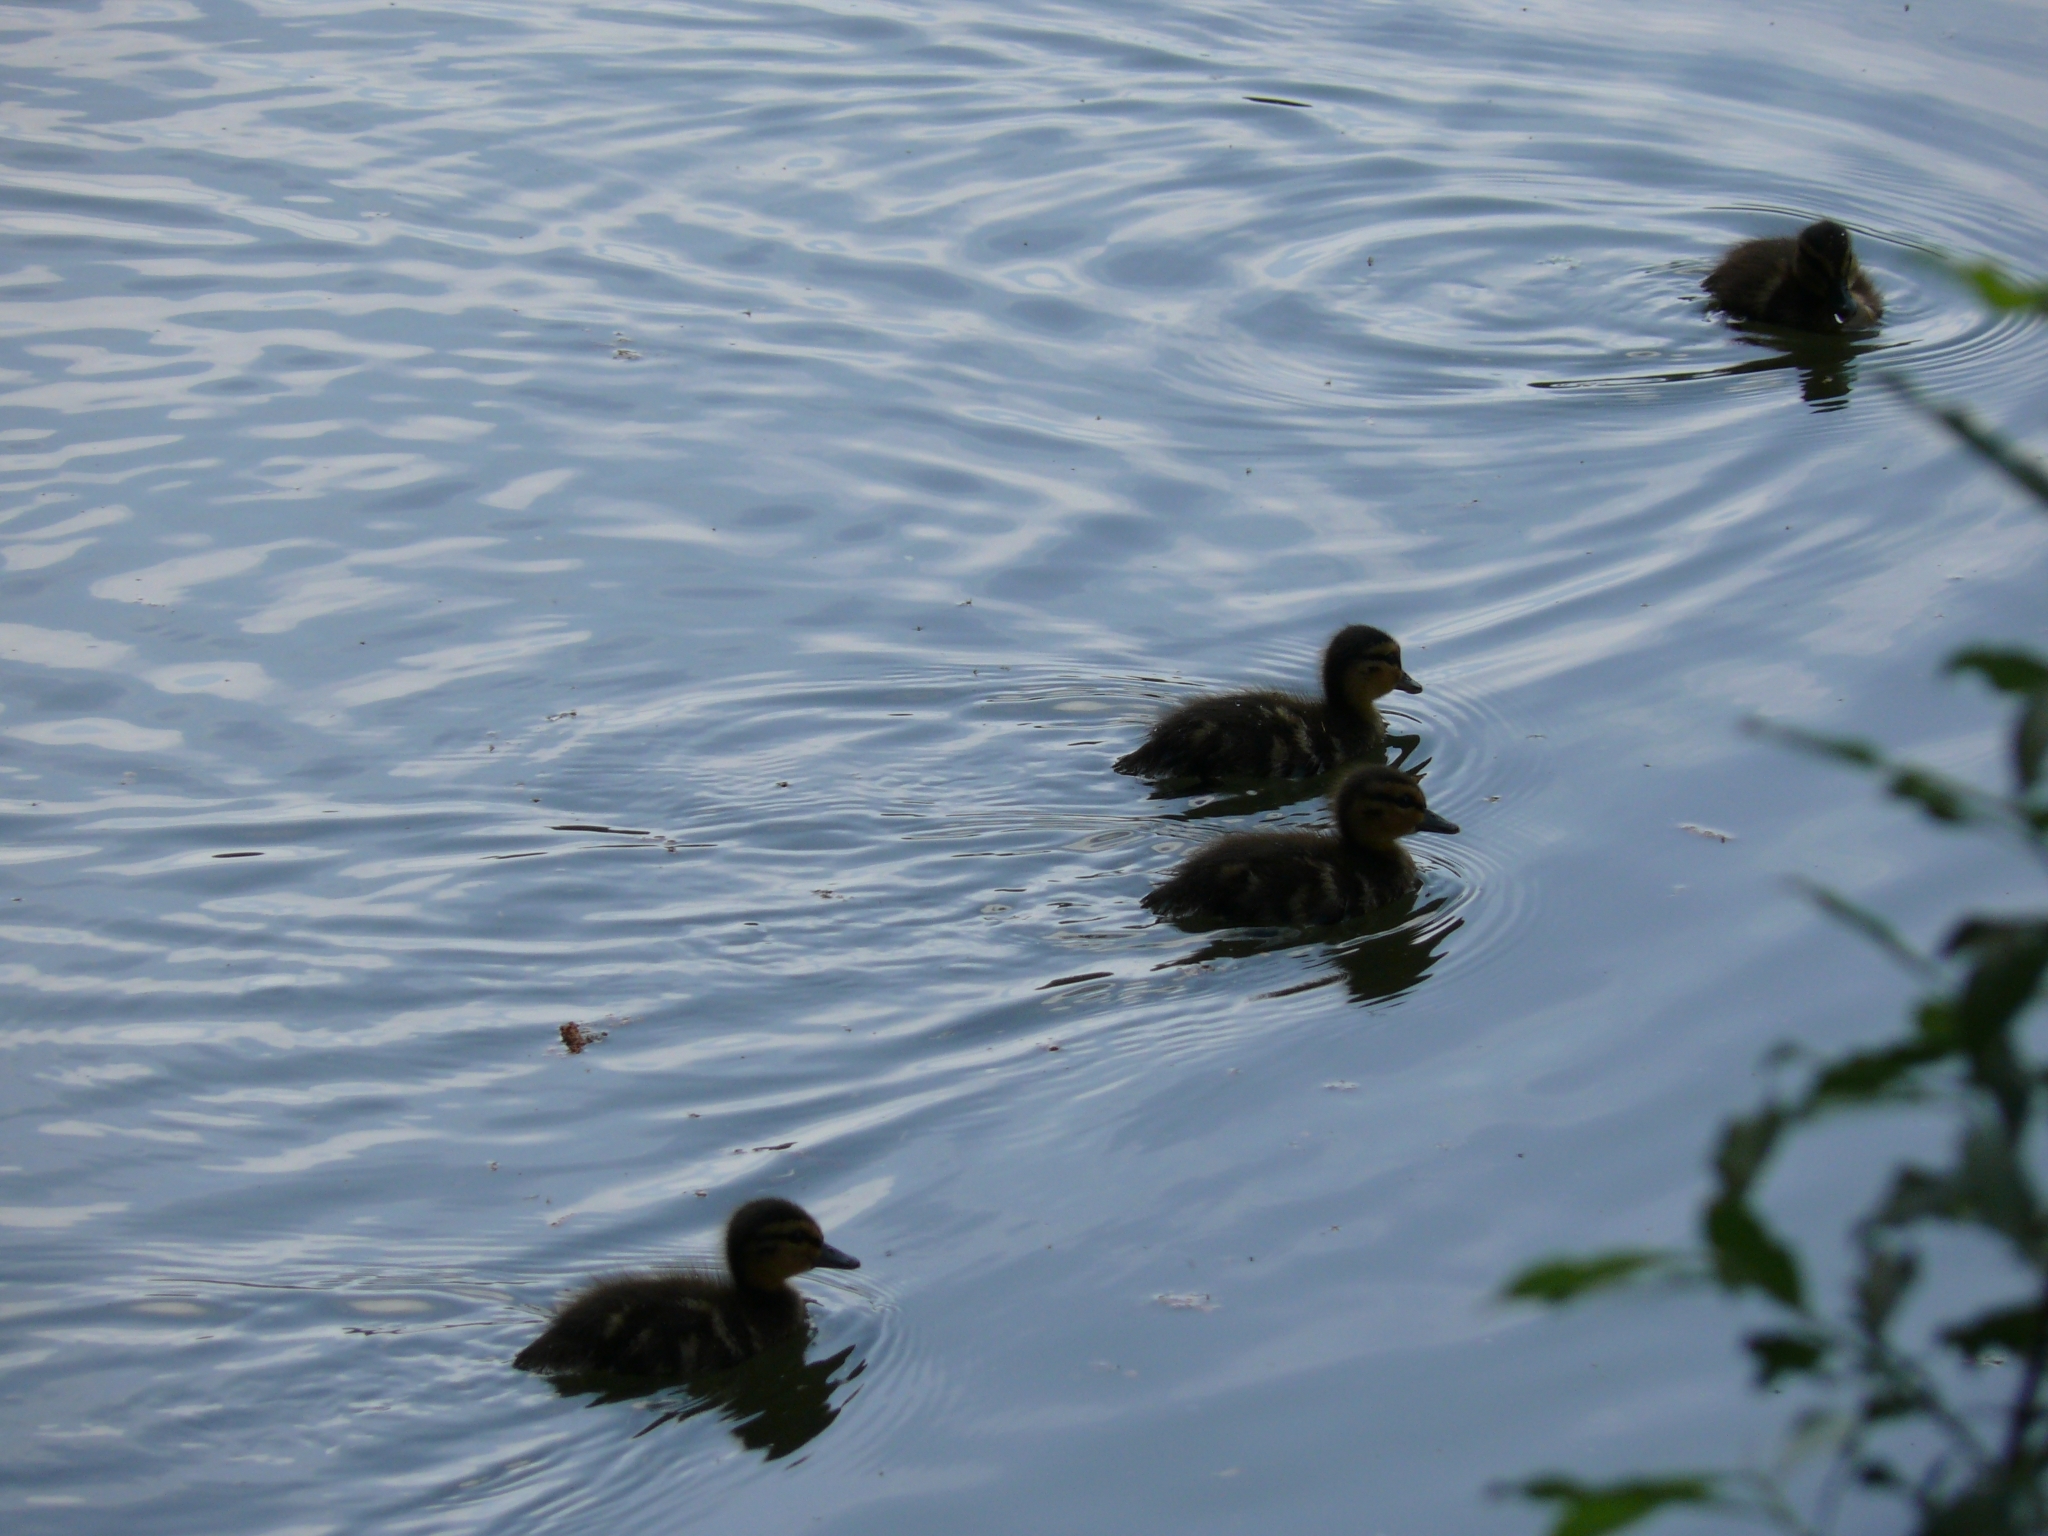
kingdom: Animalia
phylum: Chordata
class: Aves
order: Anseriformes
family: Anatidae
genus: Anas
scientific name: Anas platyrhynchos
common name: Mallard
